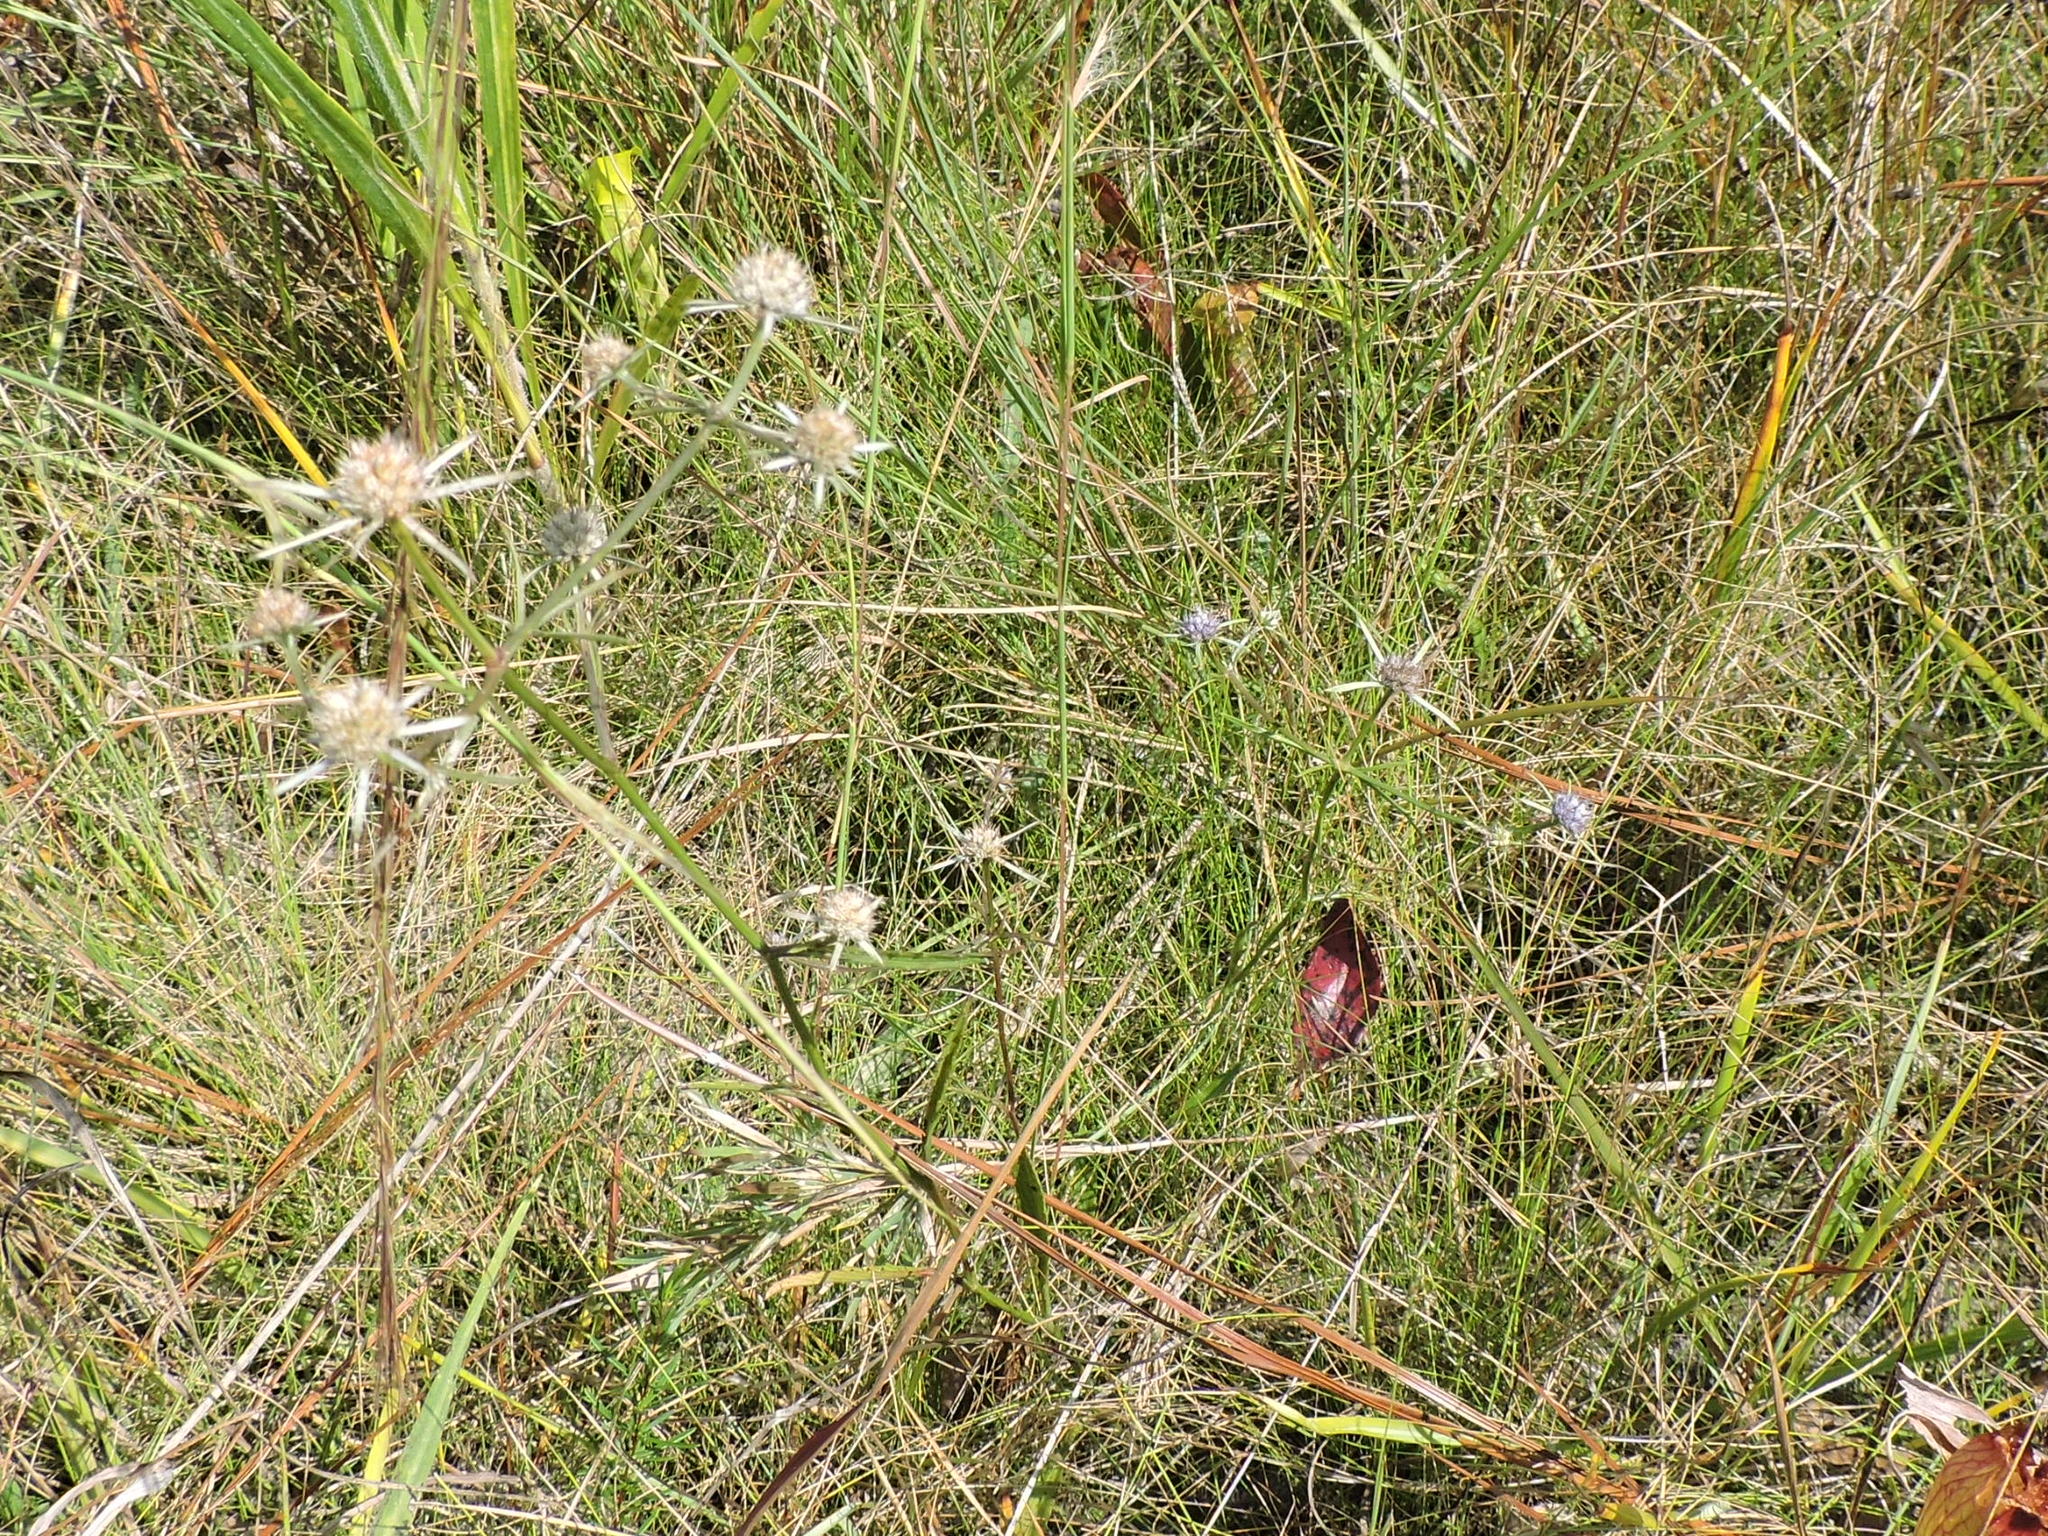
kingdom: Plantae
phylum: Tracheophyta
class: Magnoliopsida
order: Apiales
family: Apiaceae
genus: Eryngium
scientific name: Eryngium integrifolium
